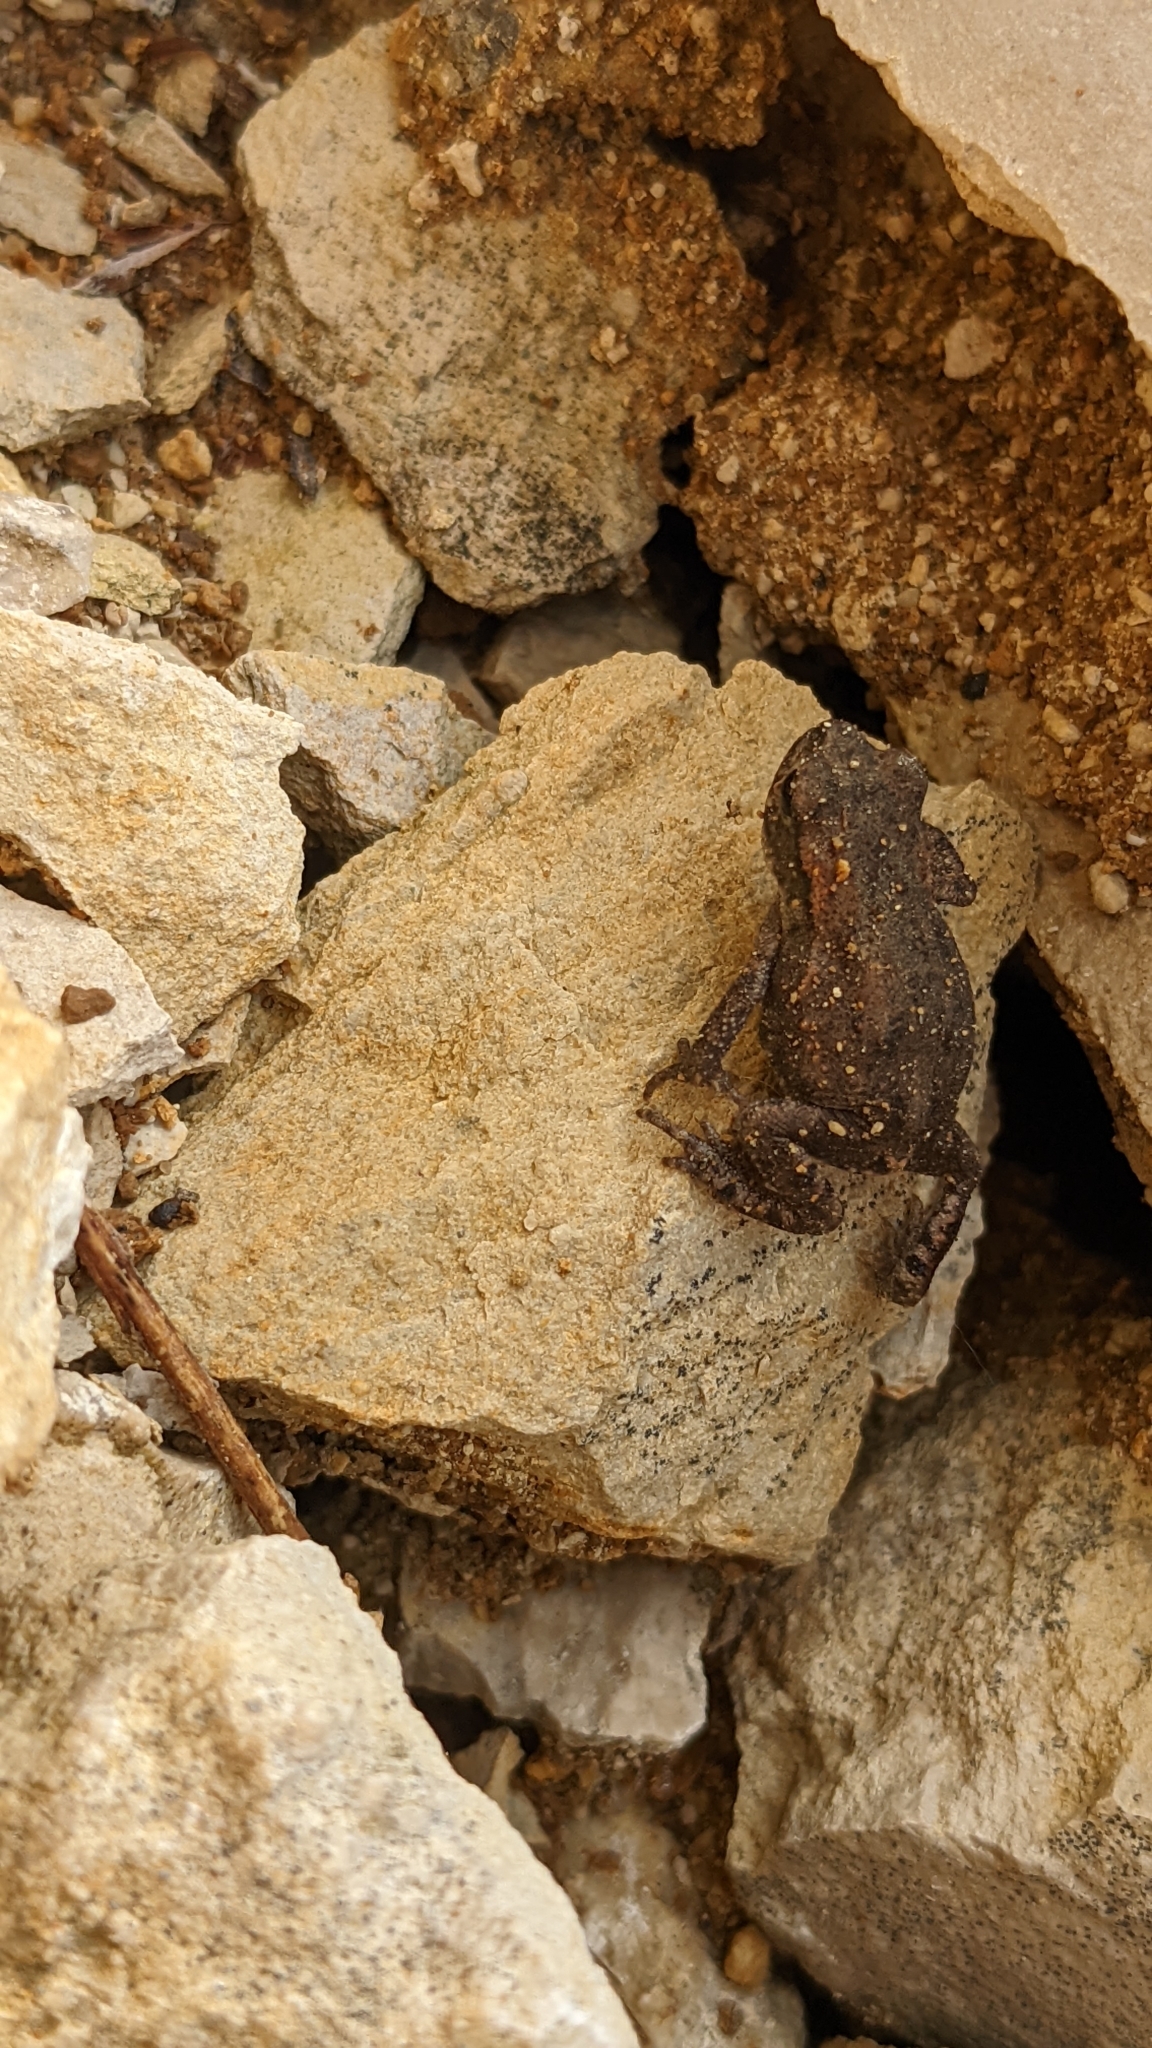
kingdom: Animalia
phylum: Chordata
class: Amphibia
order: Anura
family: Bufonidae
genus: Bufo
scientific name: Bufo bufo
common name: Common toad
